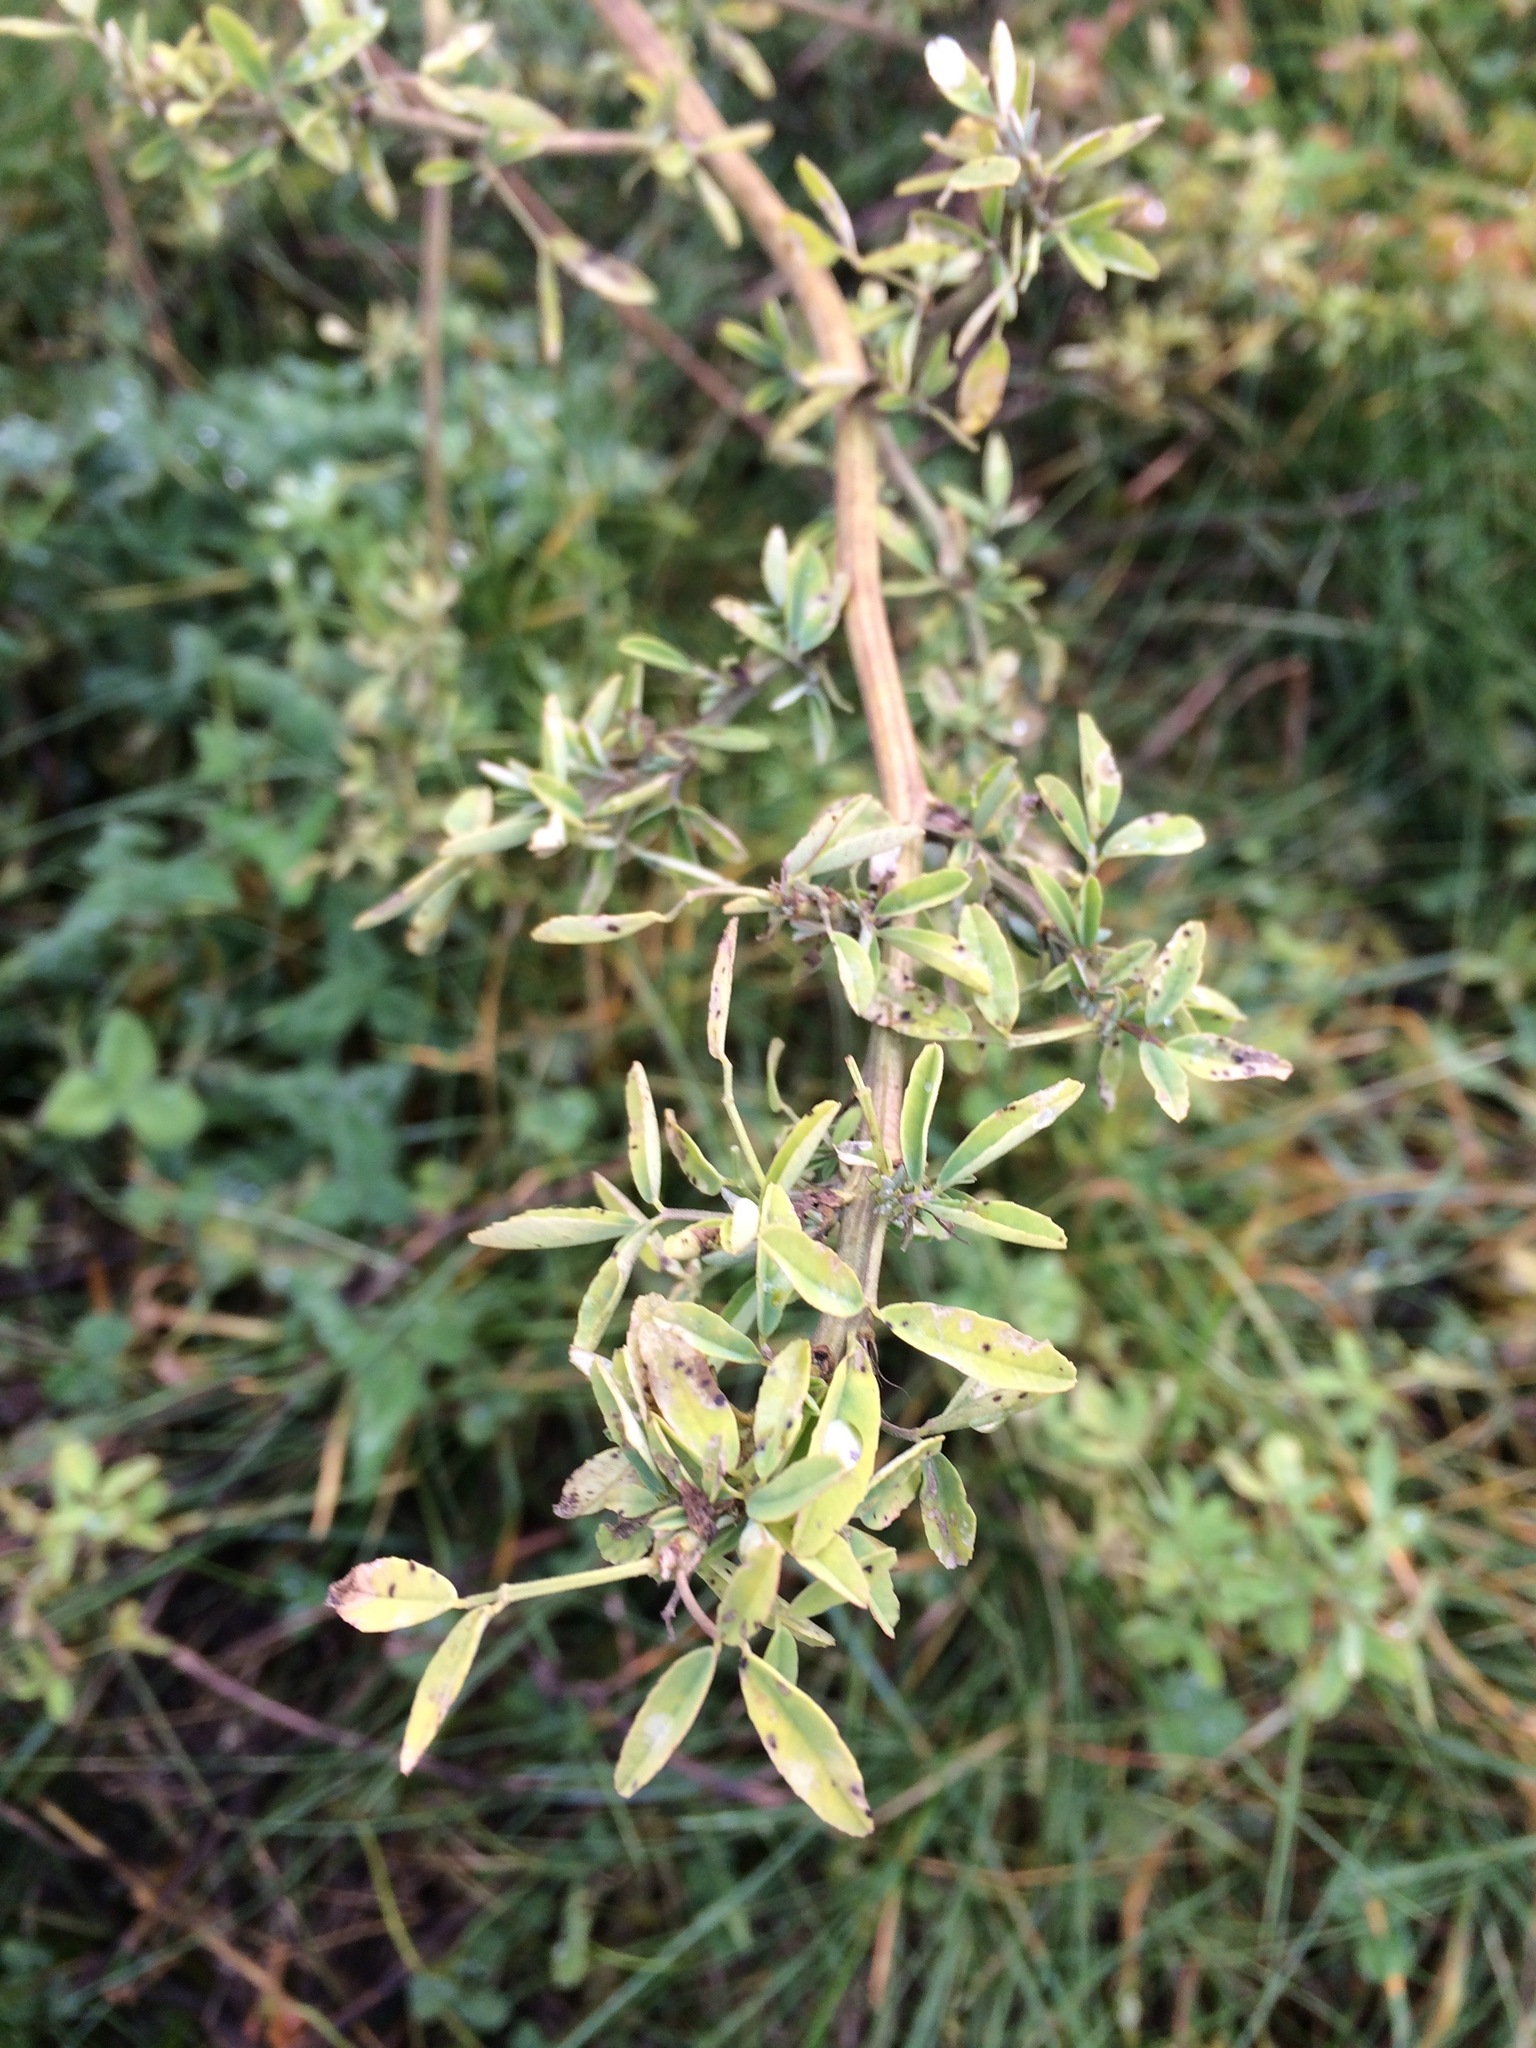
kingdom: Plantae
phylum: Tracheophyta
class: Magnoliopsida
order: Fabales
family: Fabaceae
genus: Melilotus
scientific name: Melilotus albus
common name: White melilot
